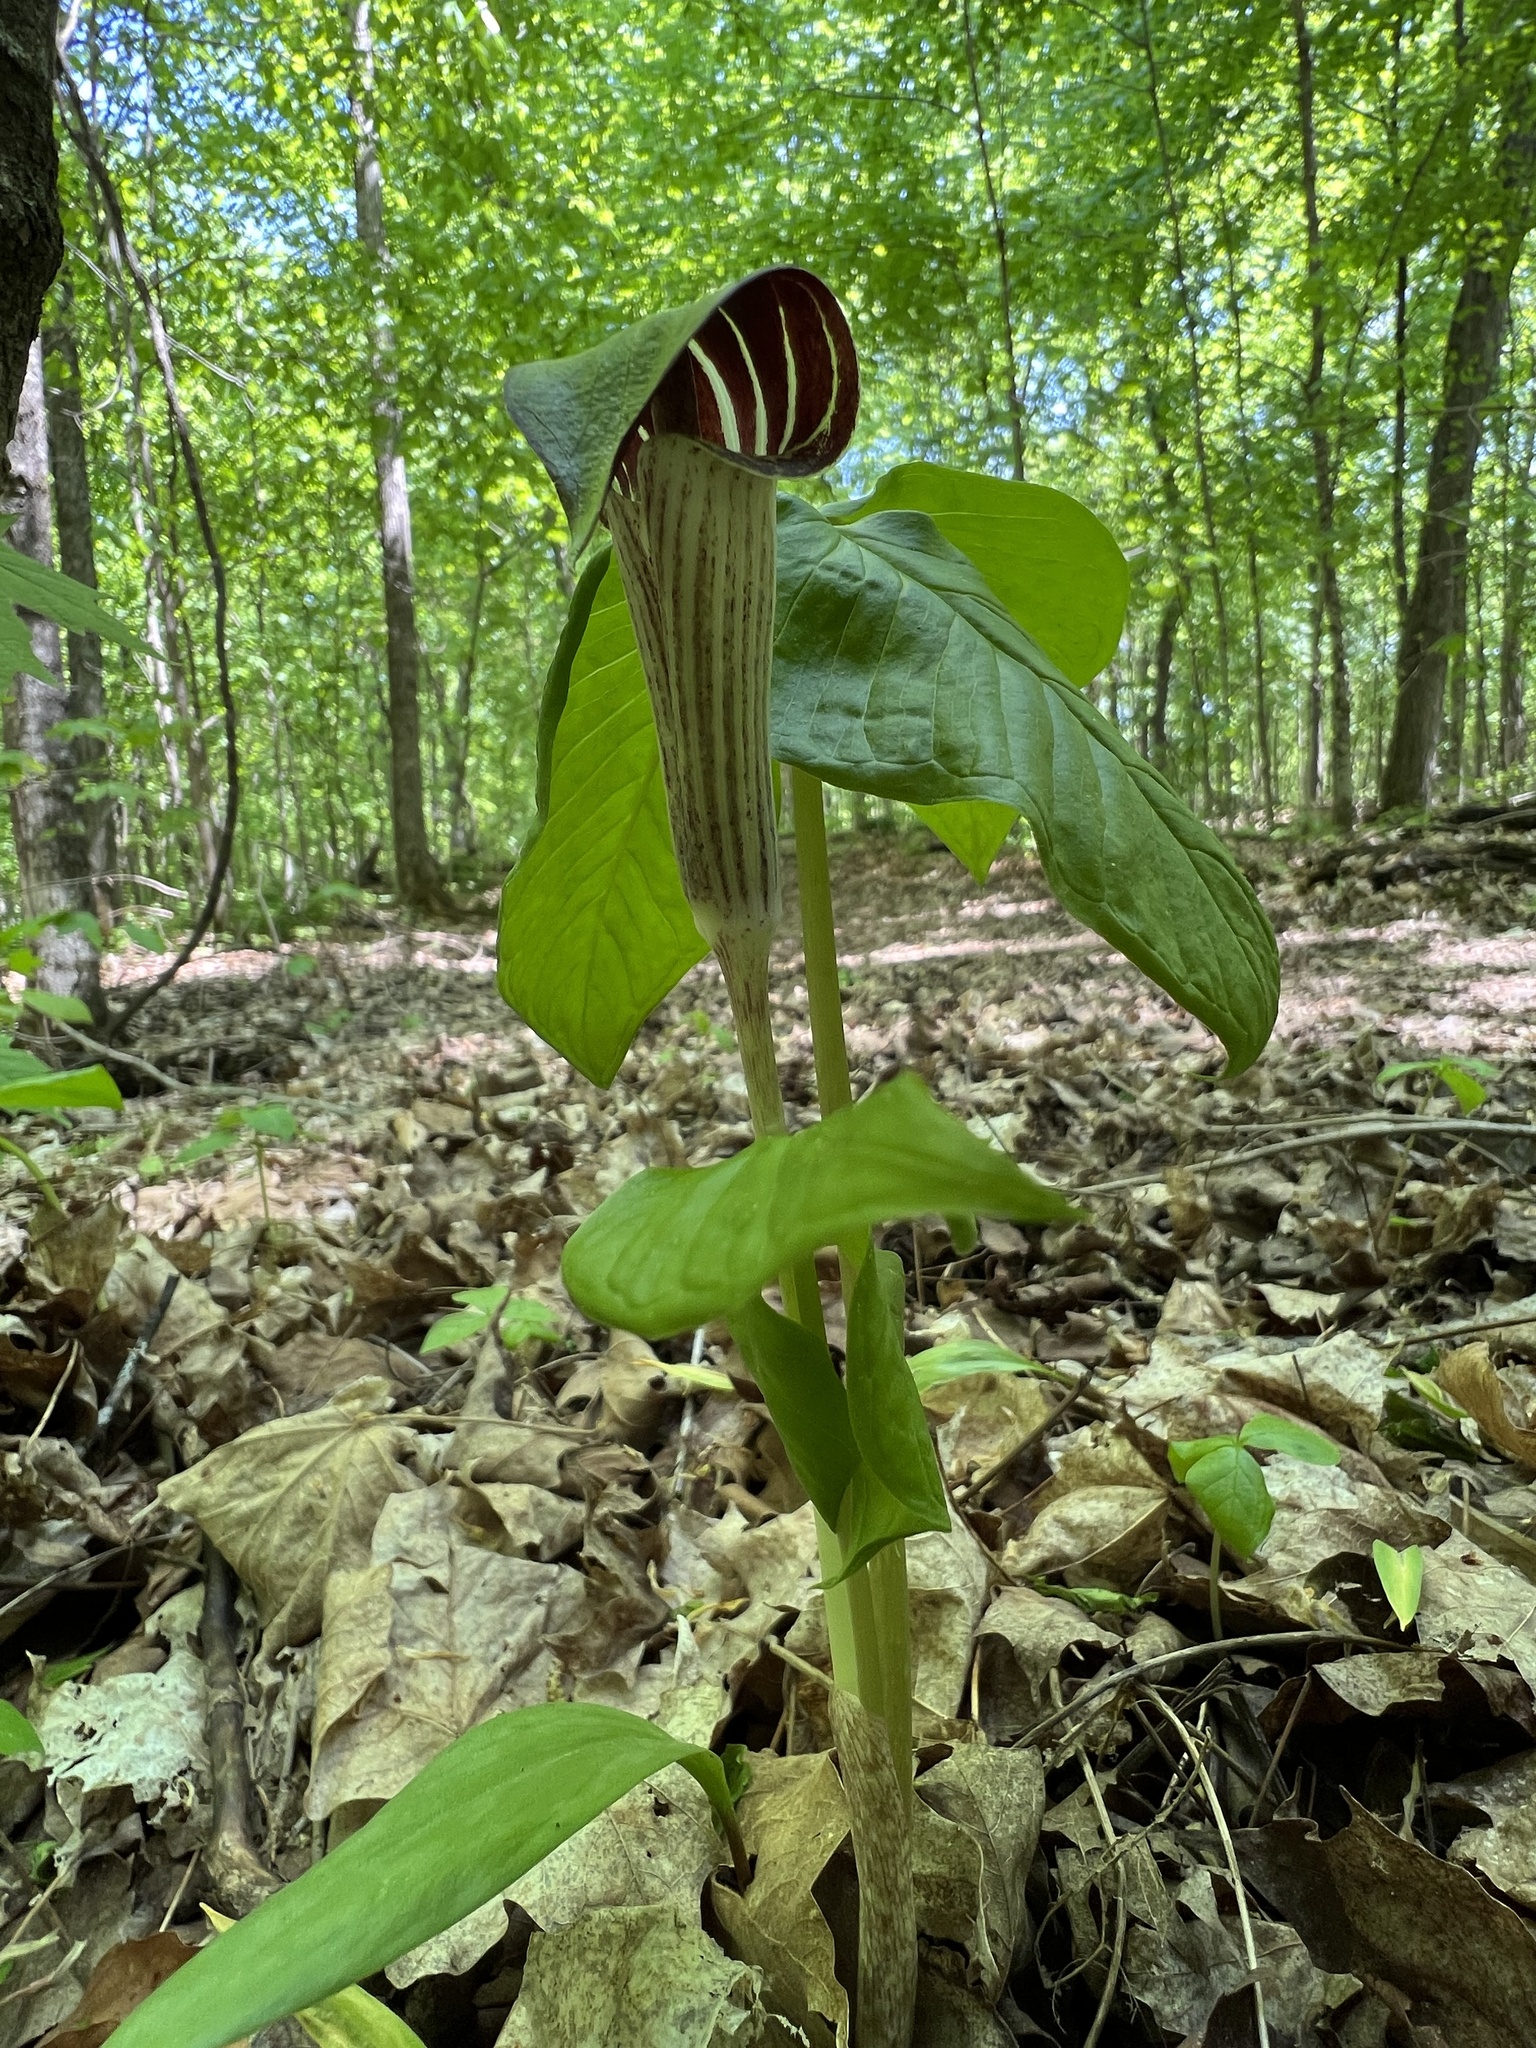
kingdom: Plantae
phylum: Tracheophyta
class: Liliopsida
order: Alismatales
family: Araceae
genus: Arisaema
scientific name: Arisaema triphyllum
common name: Jack-in-the-pulpit
